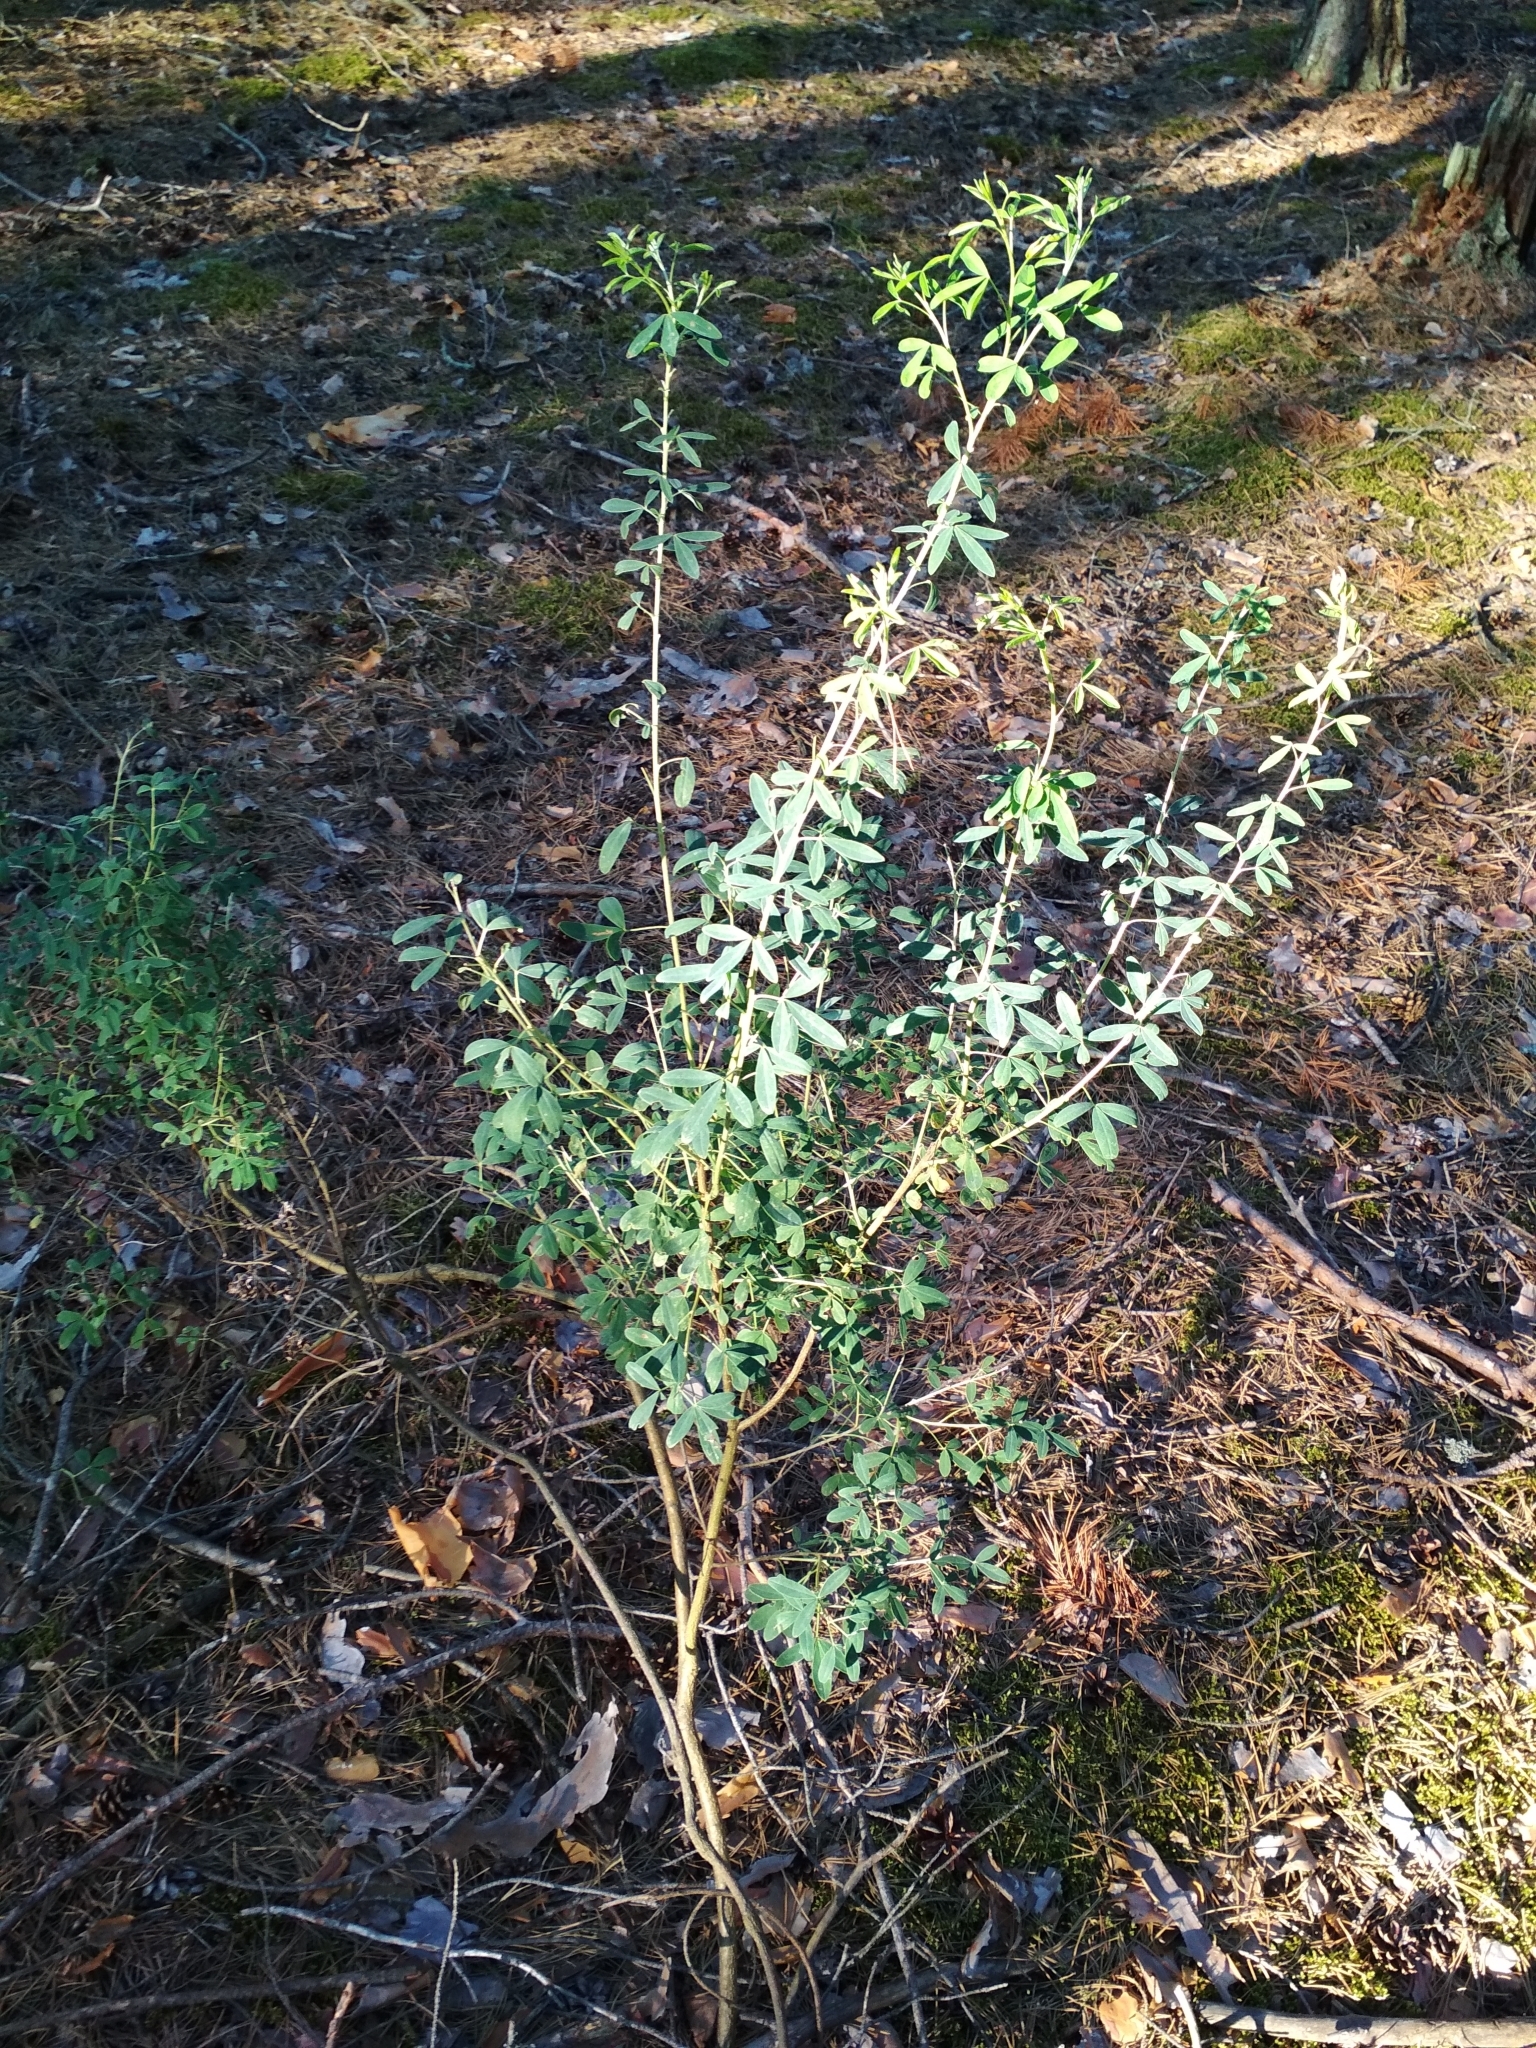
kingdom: Plantae
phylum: Tracheophyta
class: Magnoliopsida
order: Fabales
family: Fabaceae
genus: Chamaecytisus
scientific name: Chamaecytisus ruthenicus
